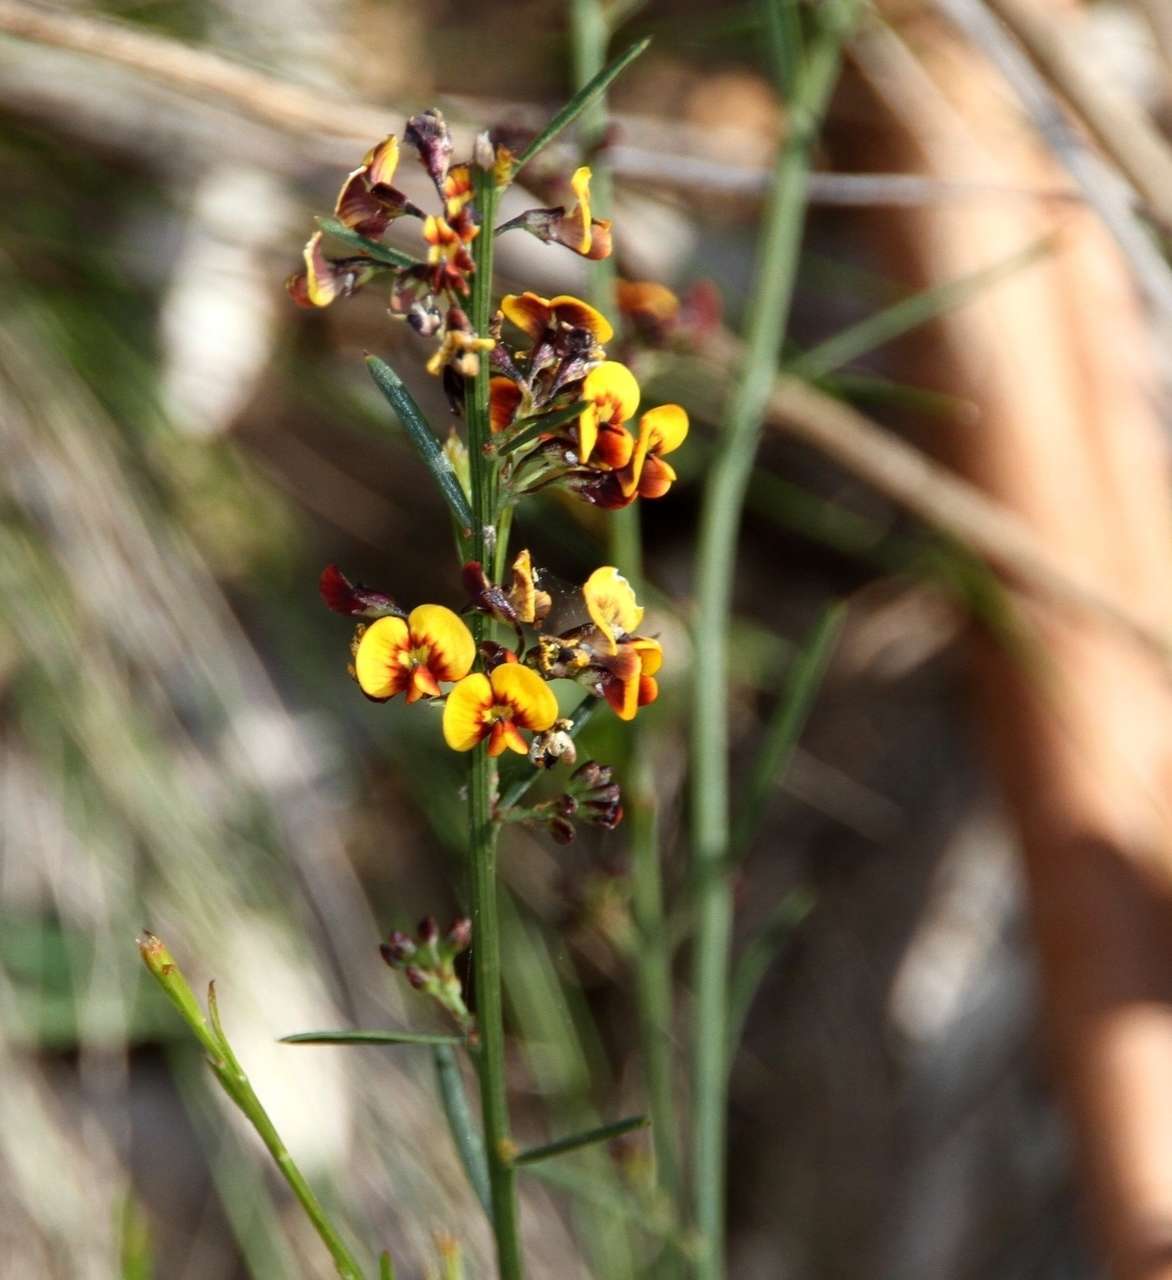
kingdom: Plantae
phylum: Tracheophyta
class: Magnoliopsida
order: Fabales
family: Fabaceae
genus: Daviesia
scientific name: Daviesia leptophylla
